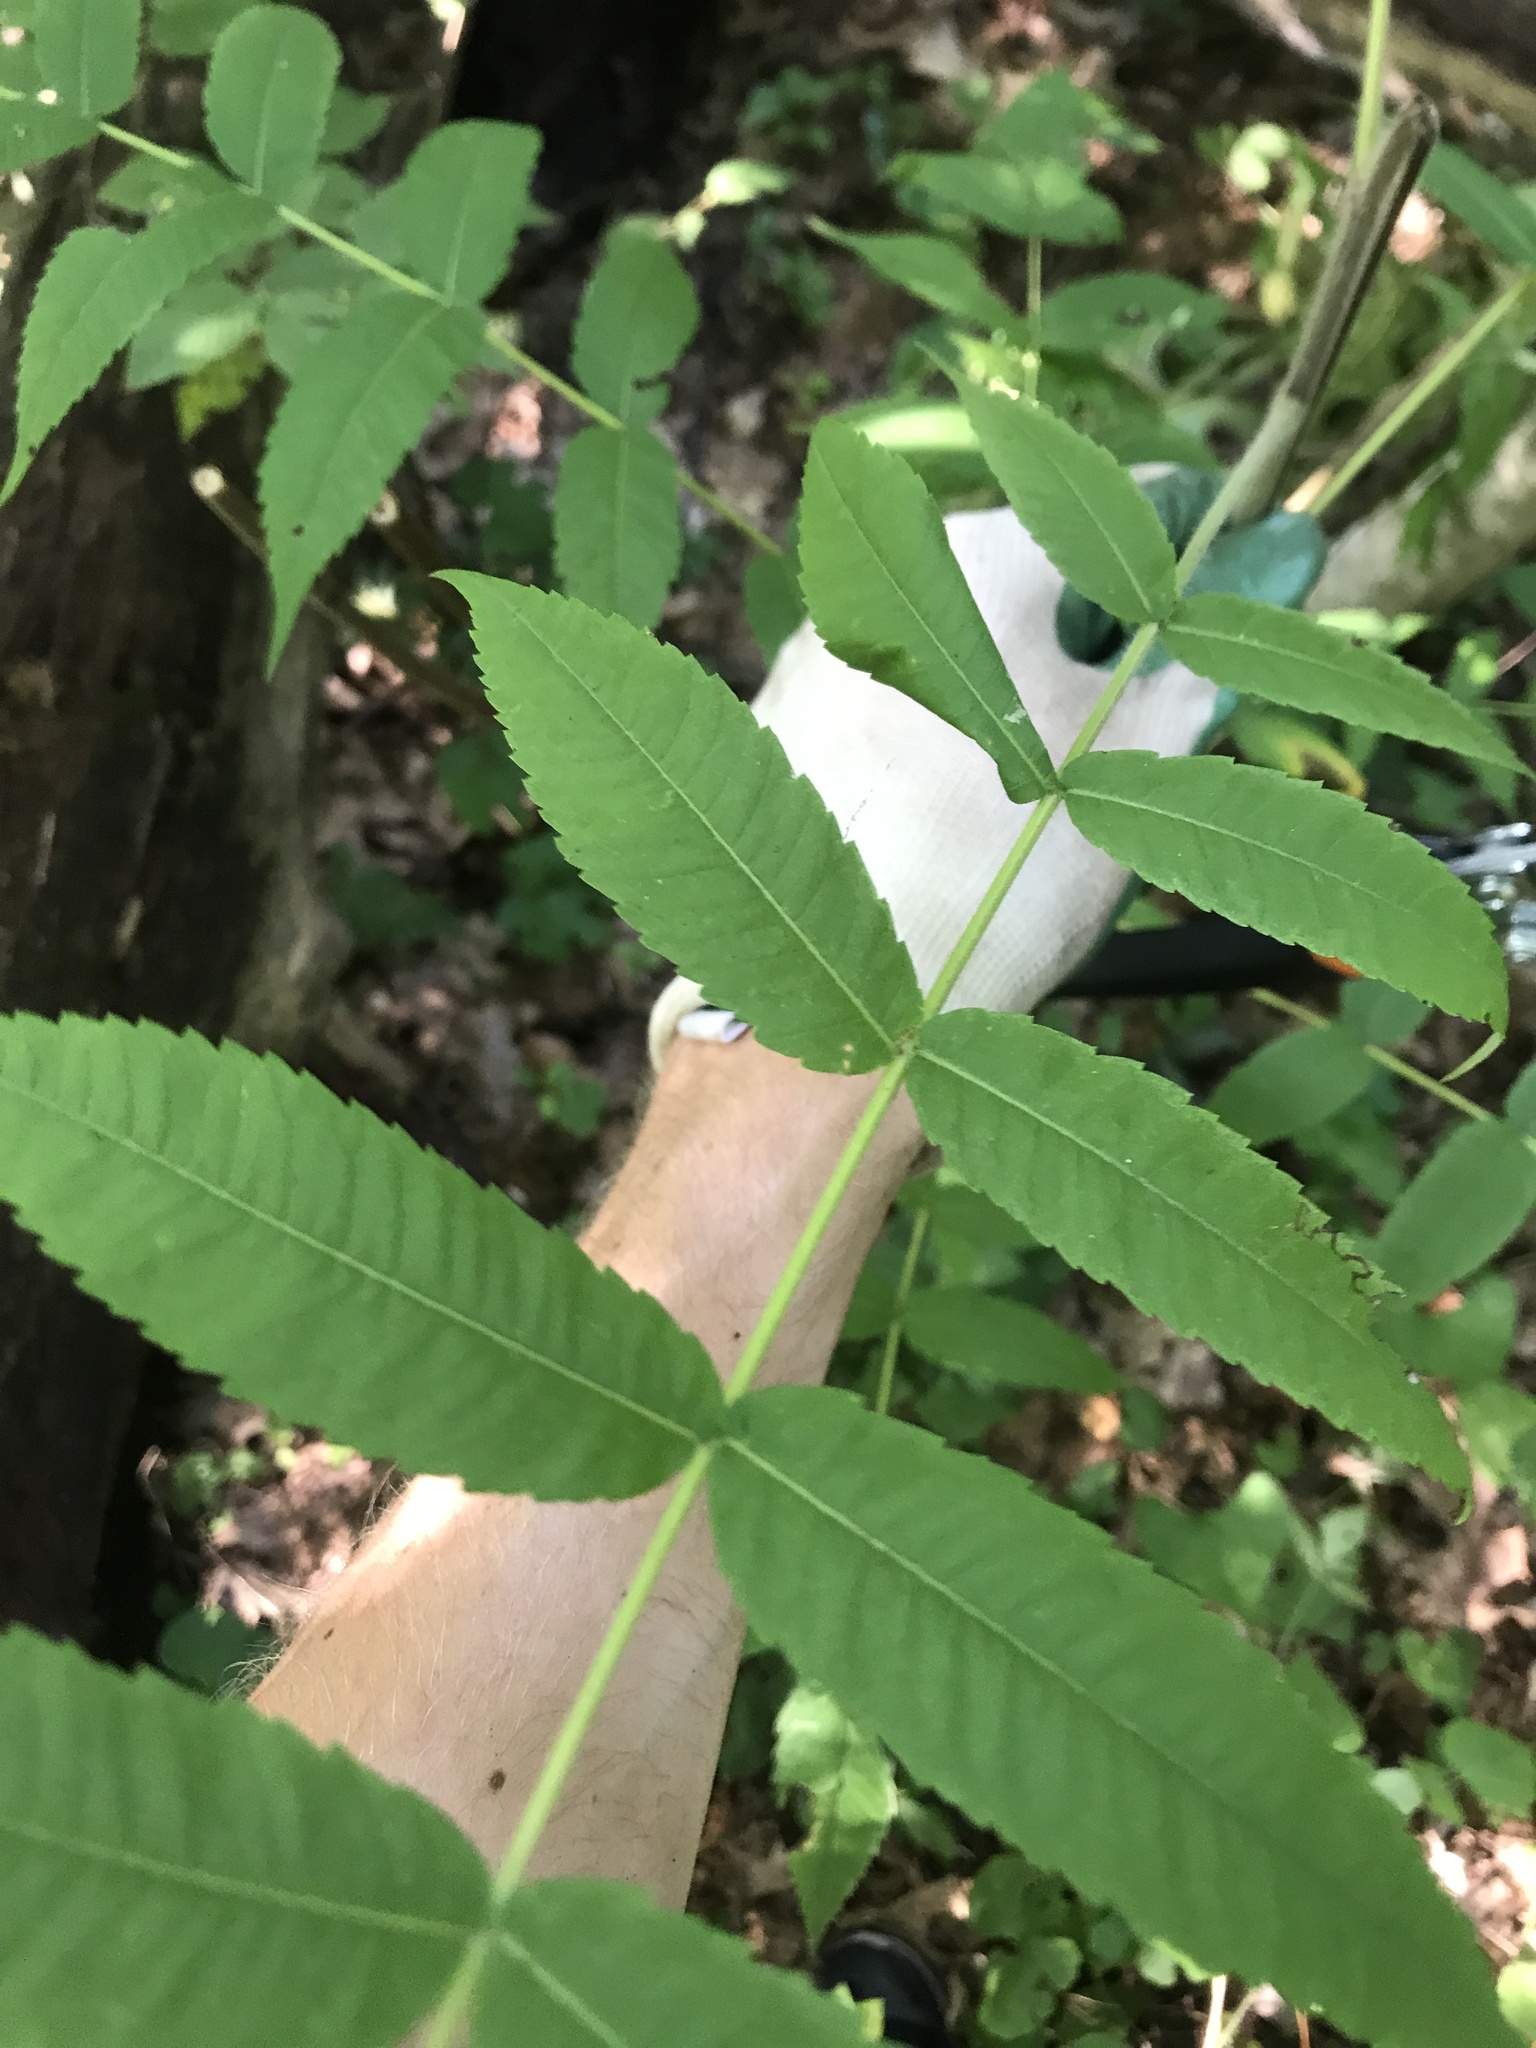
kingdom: Plantae
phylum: Tracheophyta
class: Magnoliopsida
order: Sapindales
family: Anacardiaceae
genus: Rhus
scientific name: Rhus typhina
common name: Staghorn sumac
